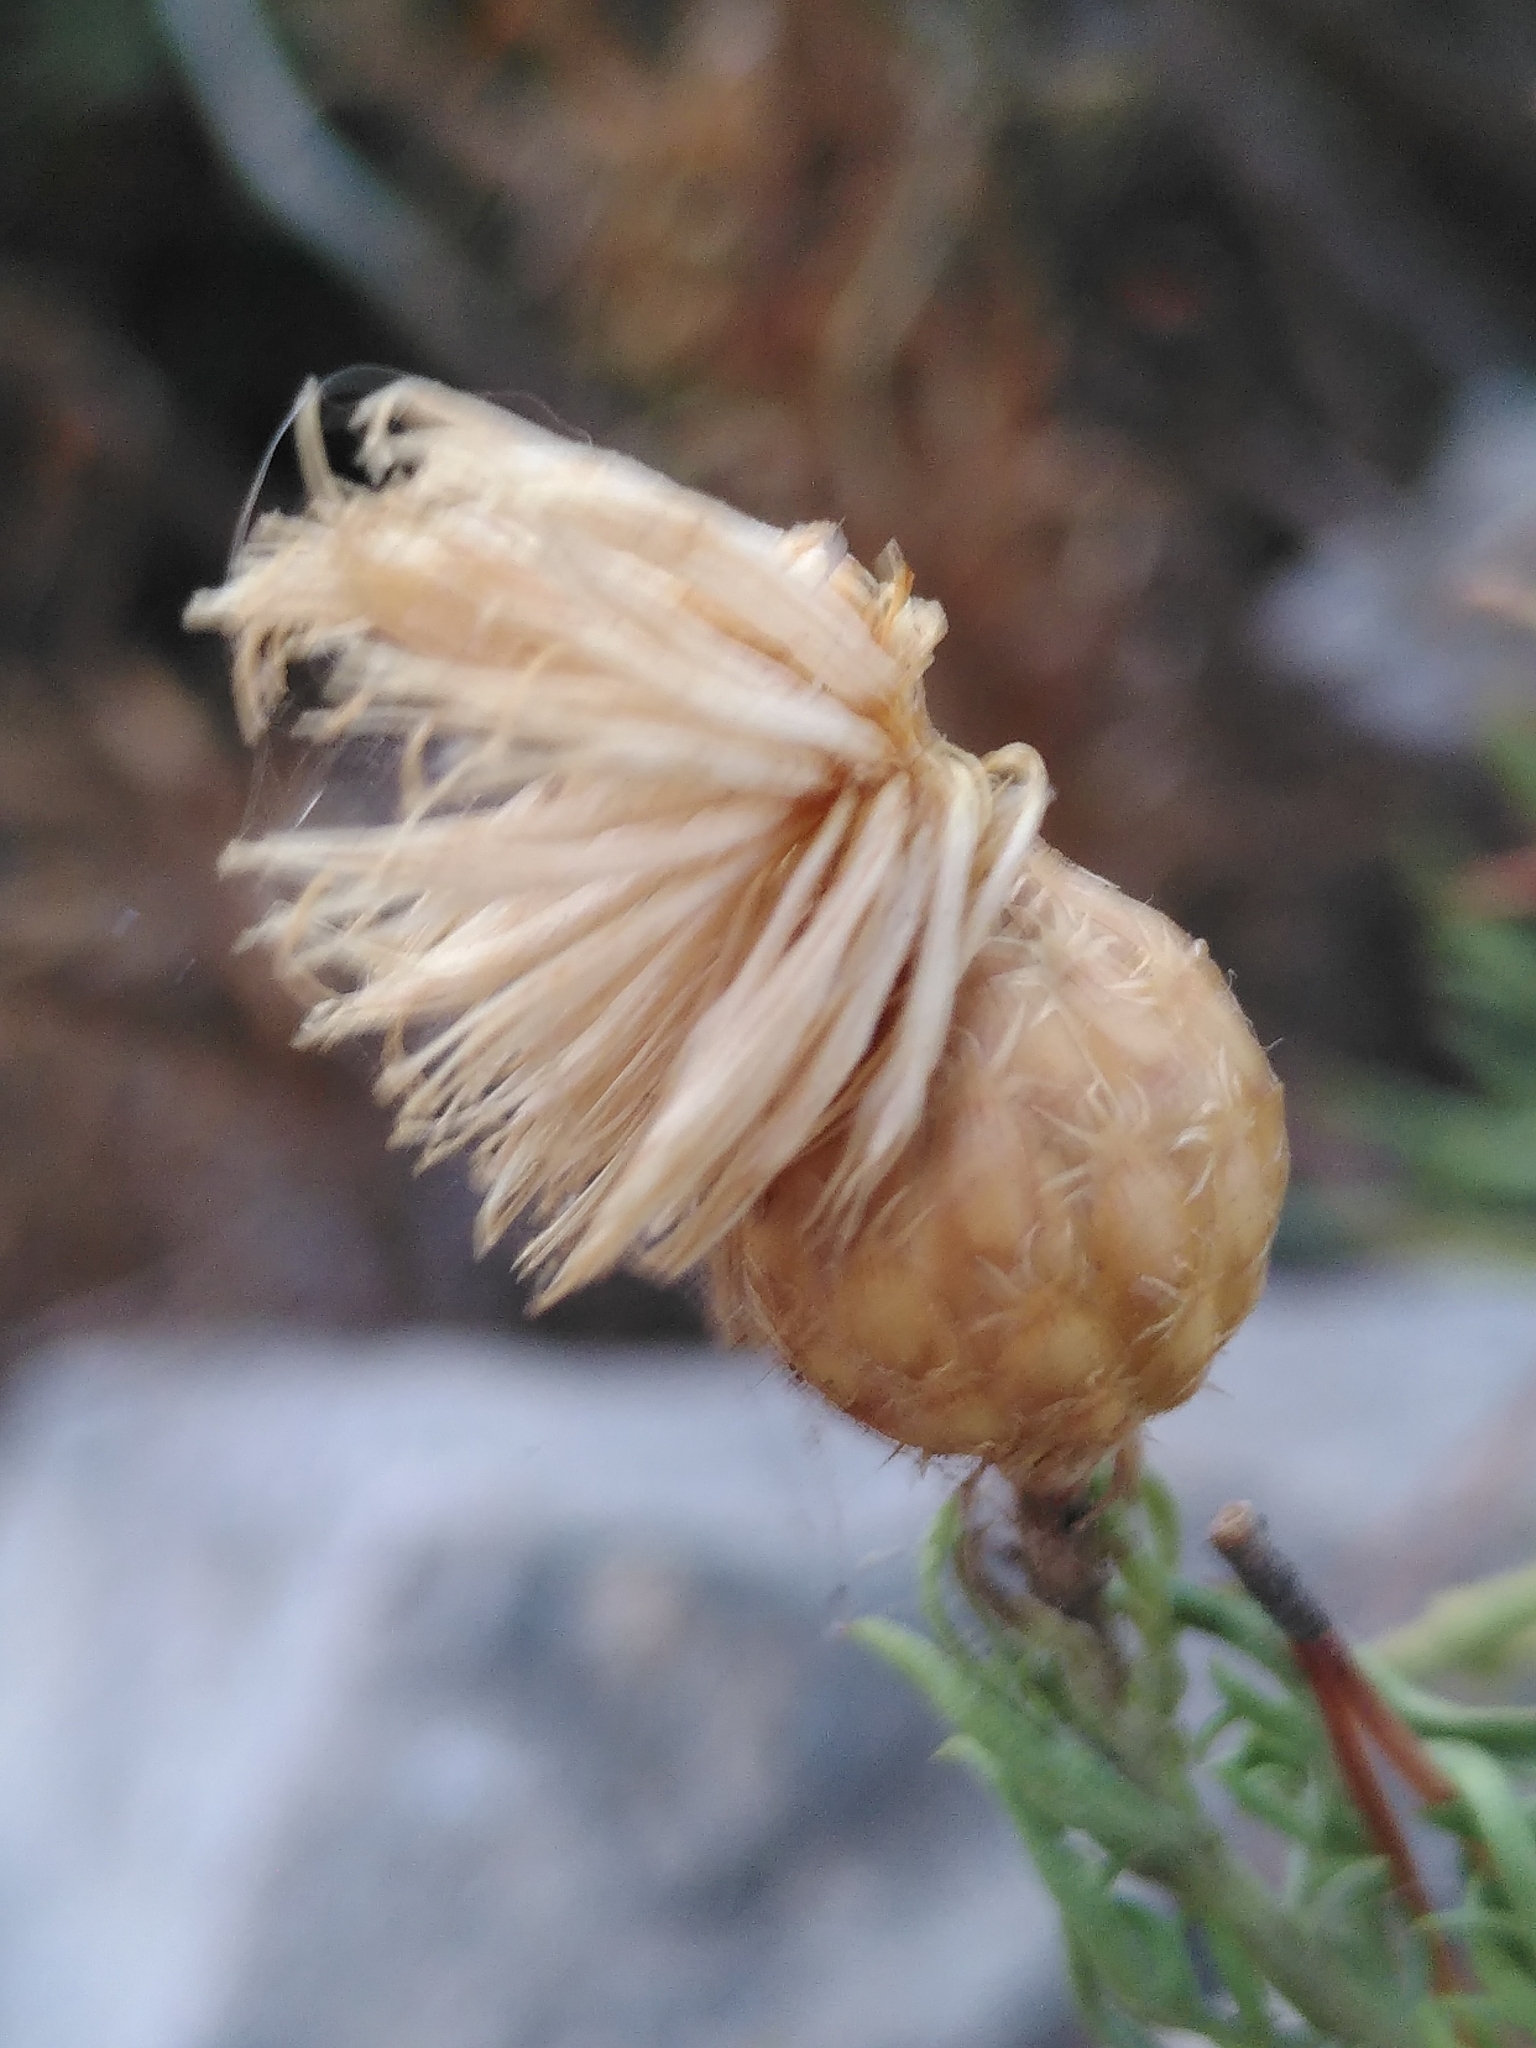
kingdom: Plantae
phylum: Tracheophyta
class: Magnoliopsida
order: Asterales
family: Asteraceae
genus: Cheirolophus
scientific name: Cheirolophus intybaceus
